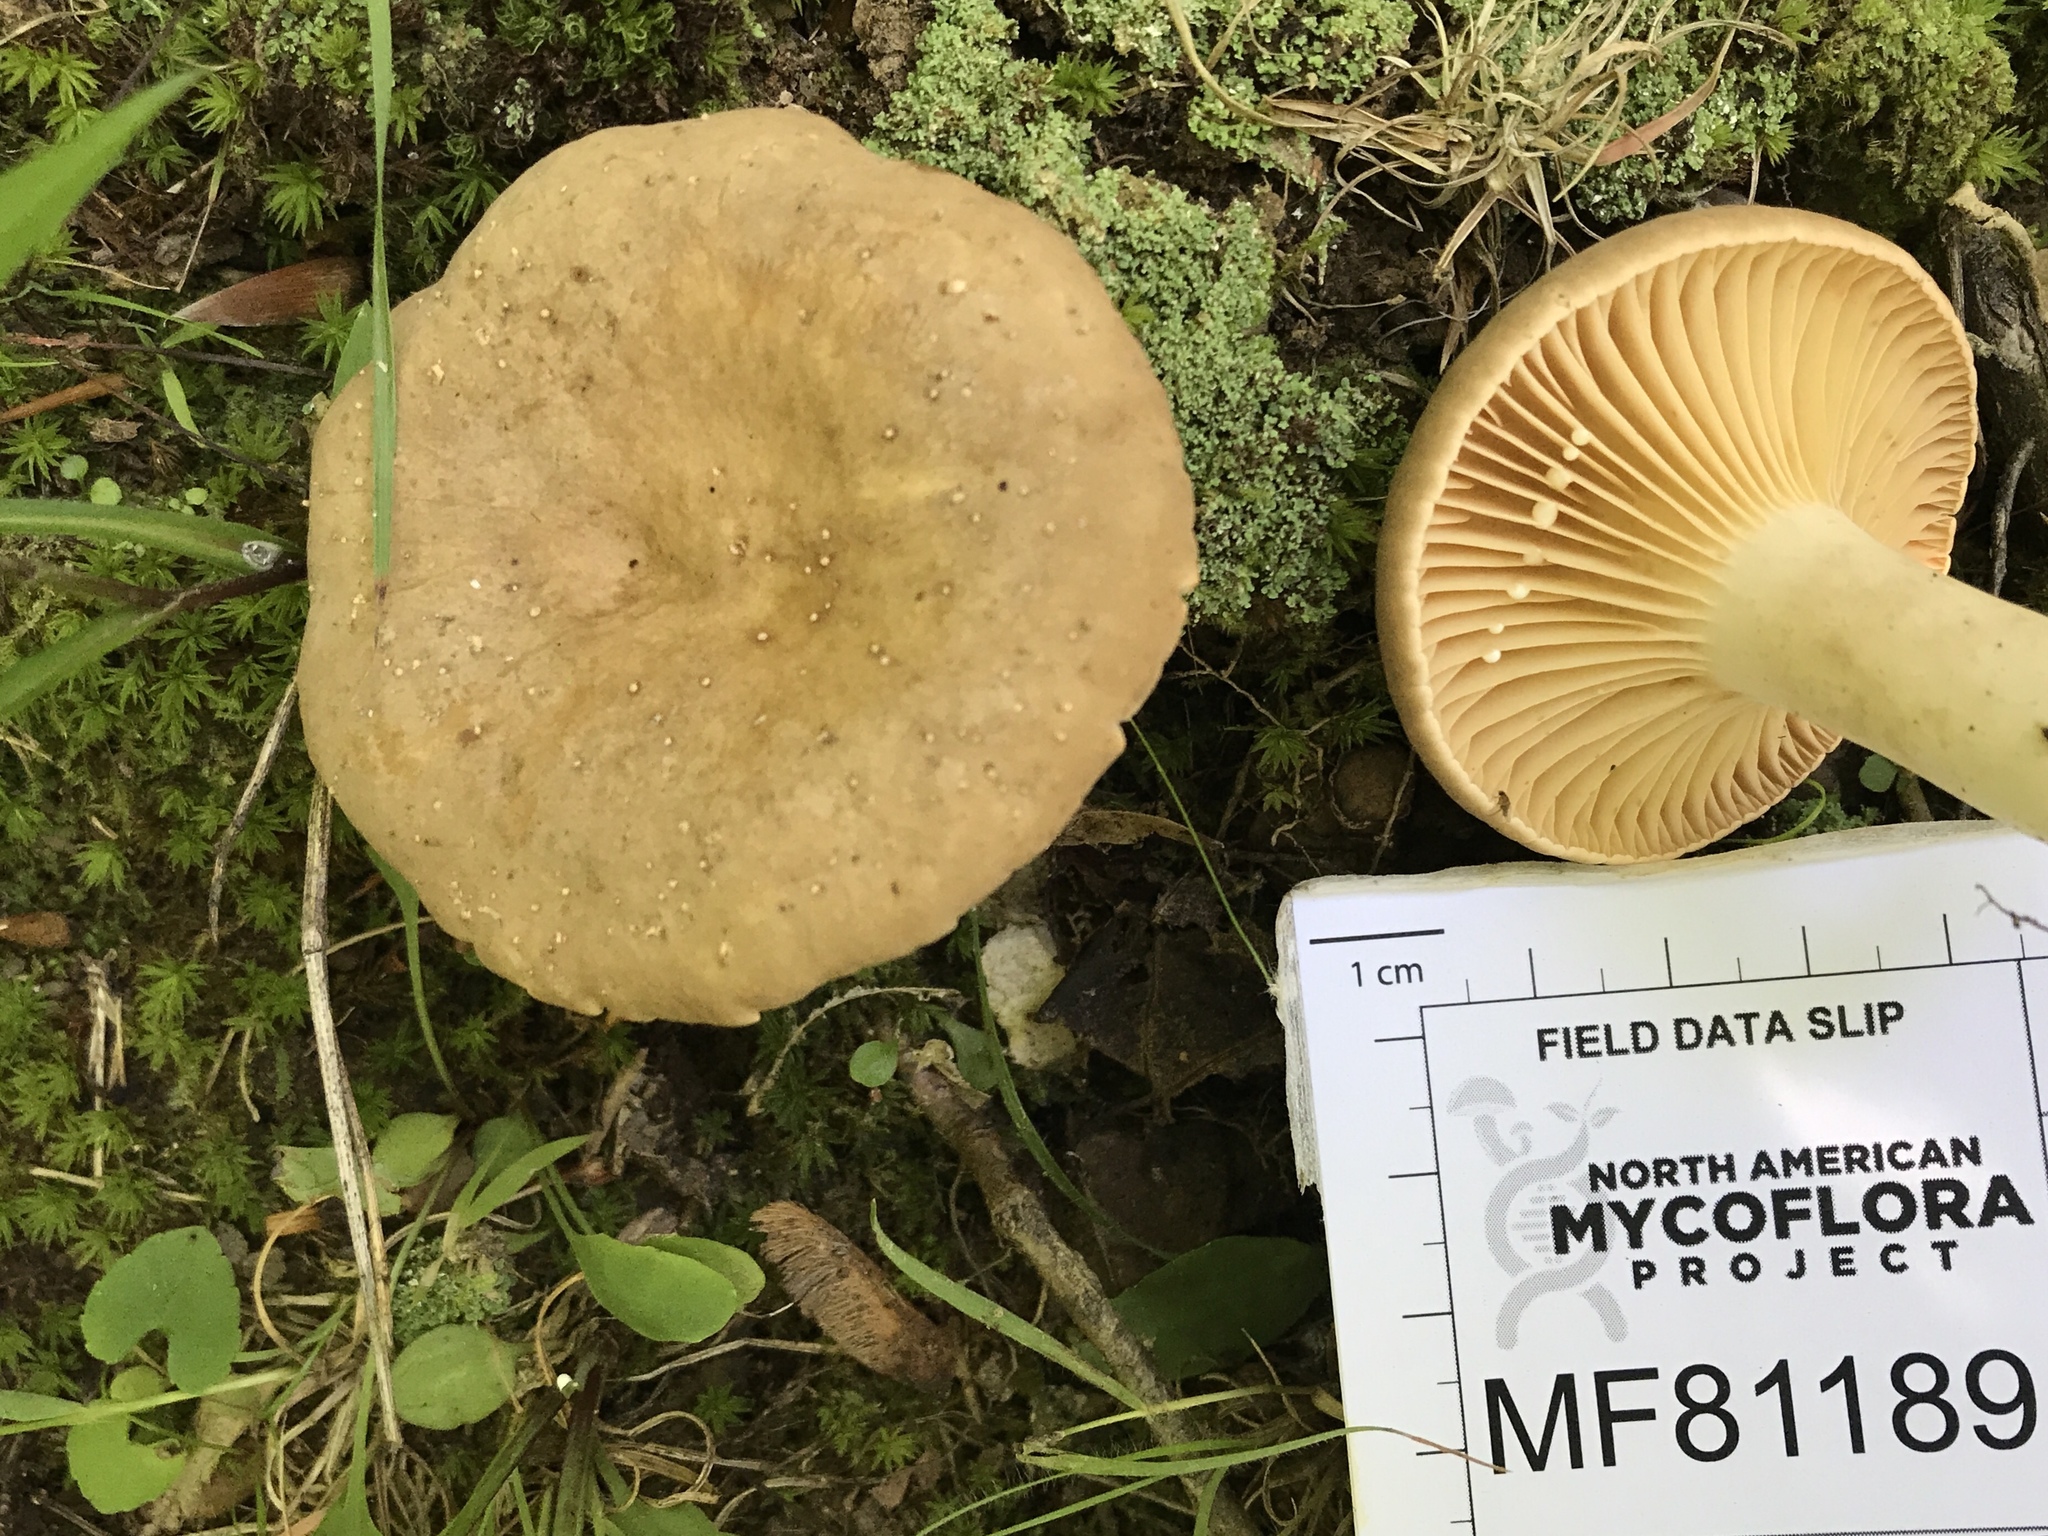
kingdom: Fungi
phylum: Basidiomycota
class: Agaricomycetes
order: Russulales
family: Russulaceae
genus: Lactarius
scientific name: Lactarius subplinthogalus
